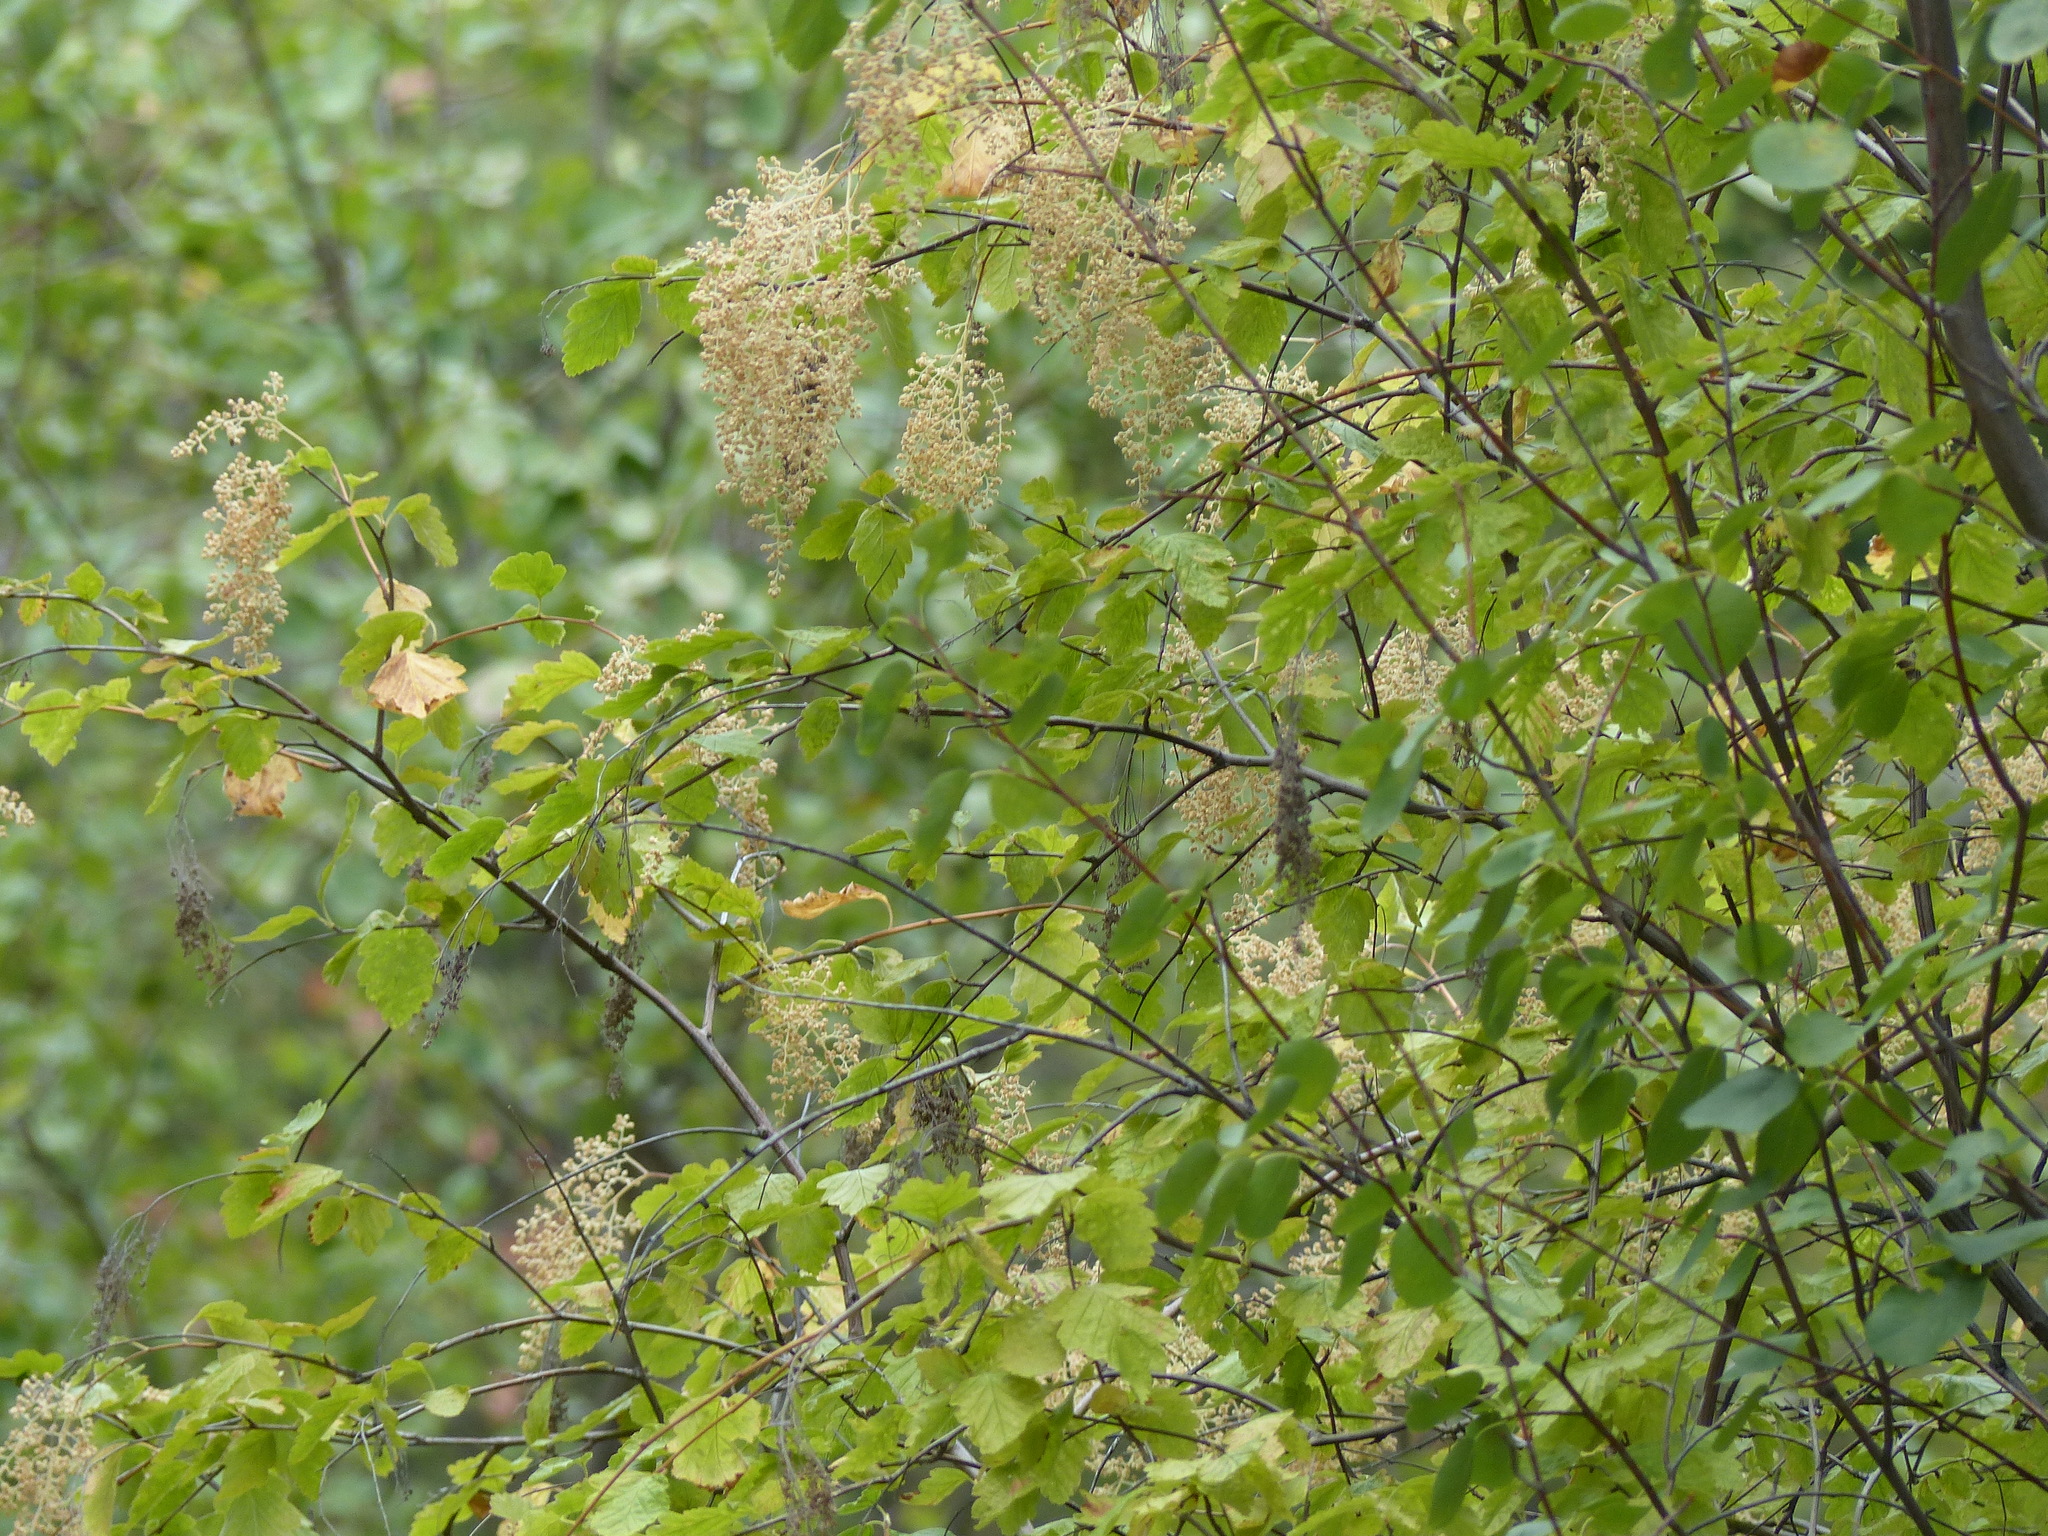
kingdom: Plantae
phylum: Tracheophyta
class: Magnoliopsida
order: Rosales
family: Rosaceae
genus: Holodiscus
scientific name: Holodiscus discolor
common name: Oceanspray
